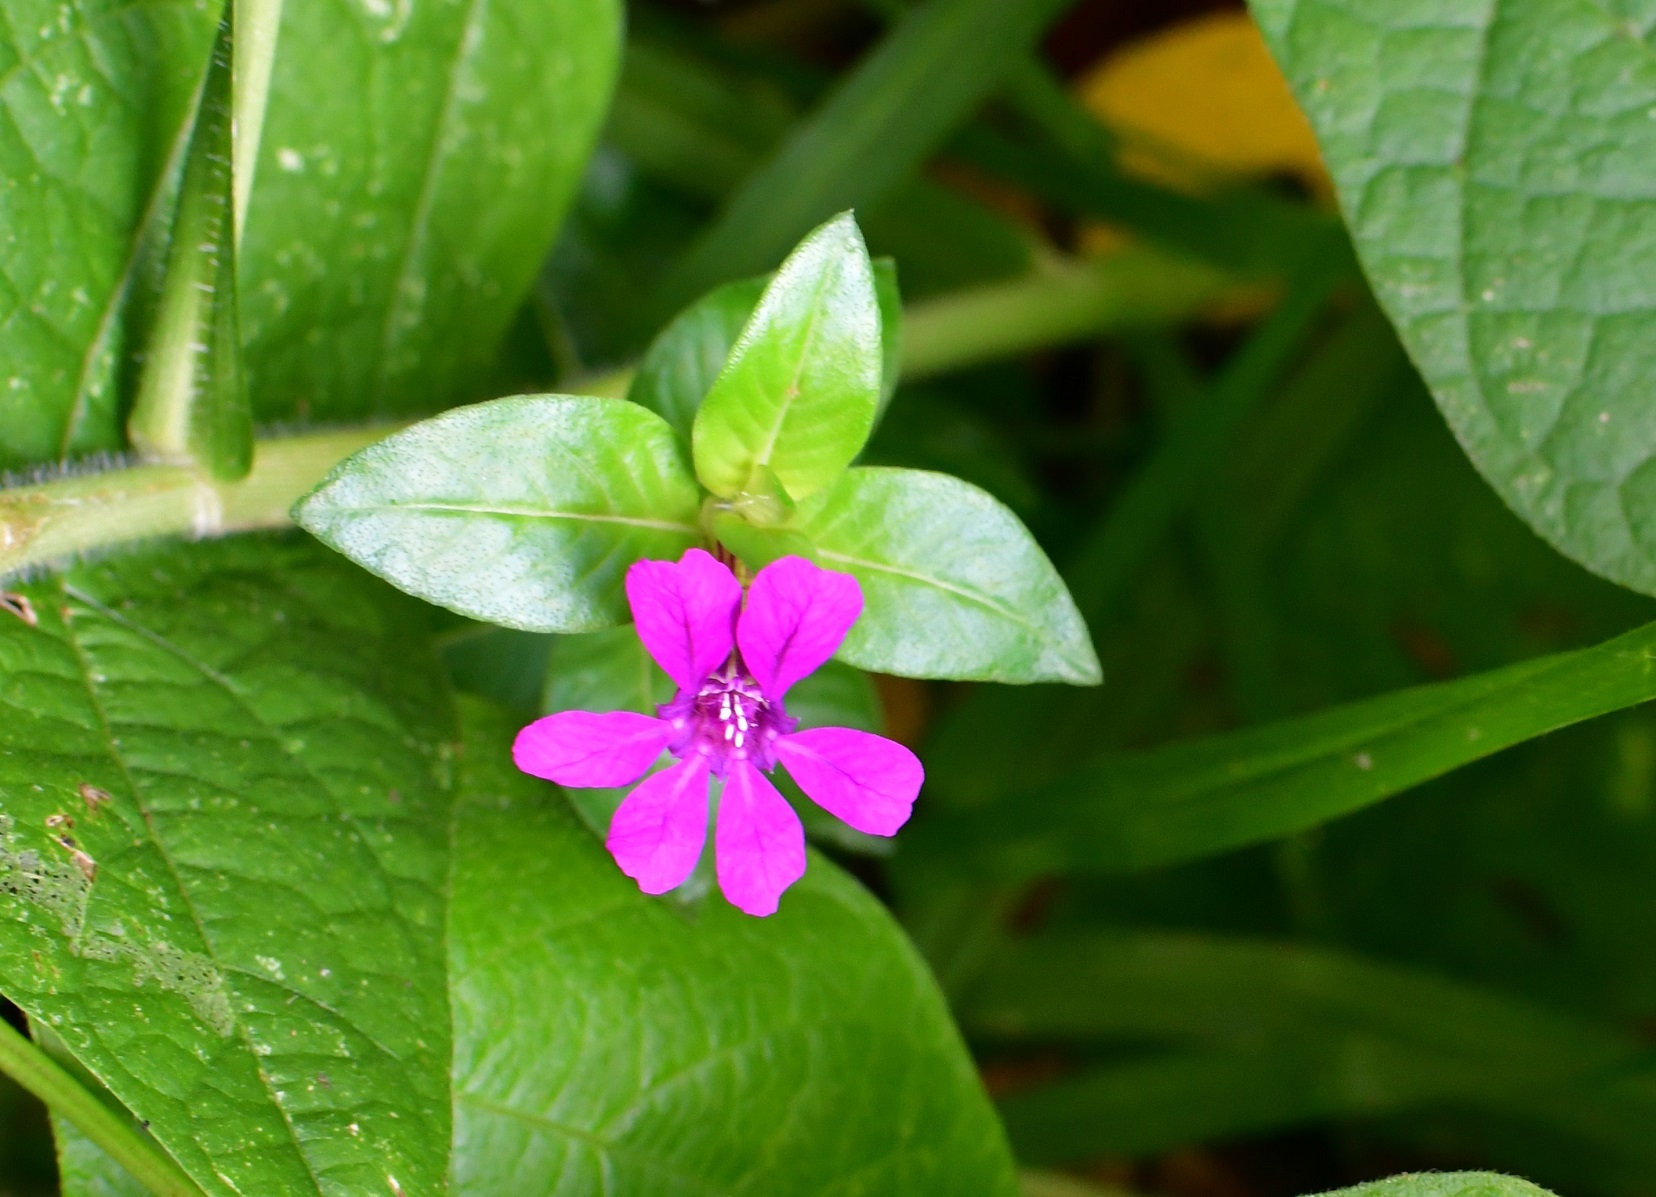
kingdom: Plantae
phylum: Tracheophyta
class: Magnoliopsida
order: Myrtales
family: Lythraceae
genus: Cuphea
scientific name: Cuphea aequipetala
